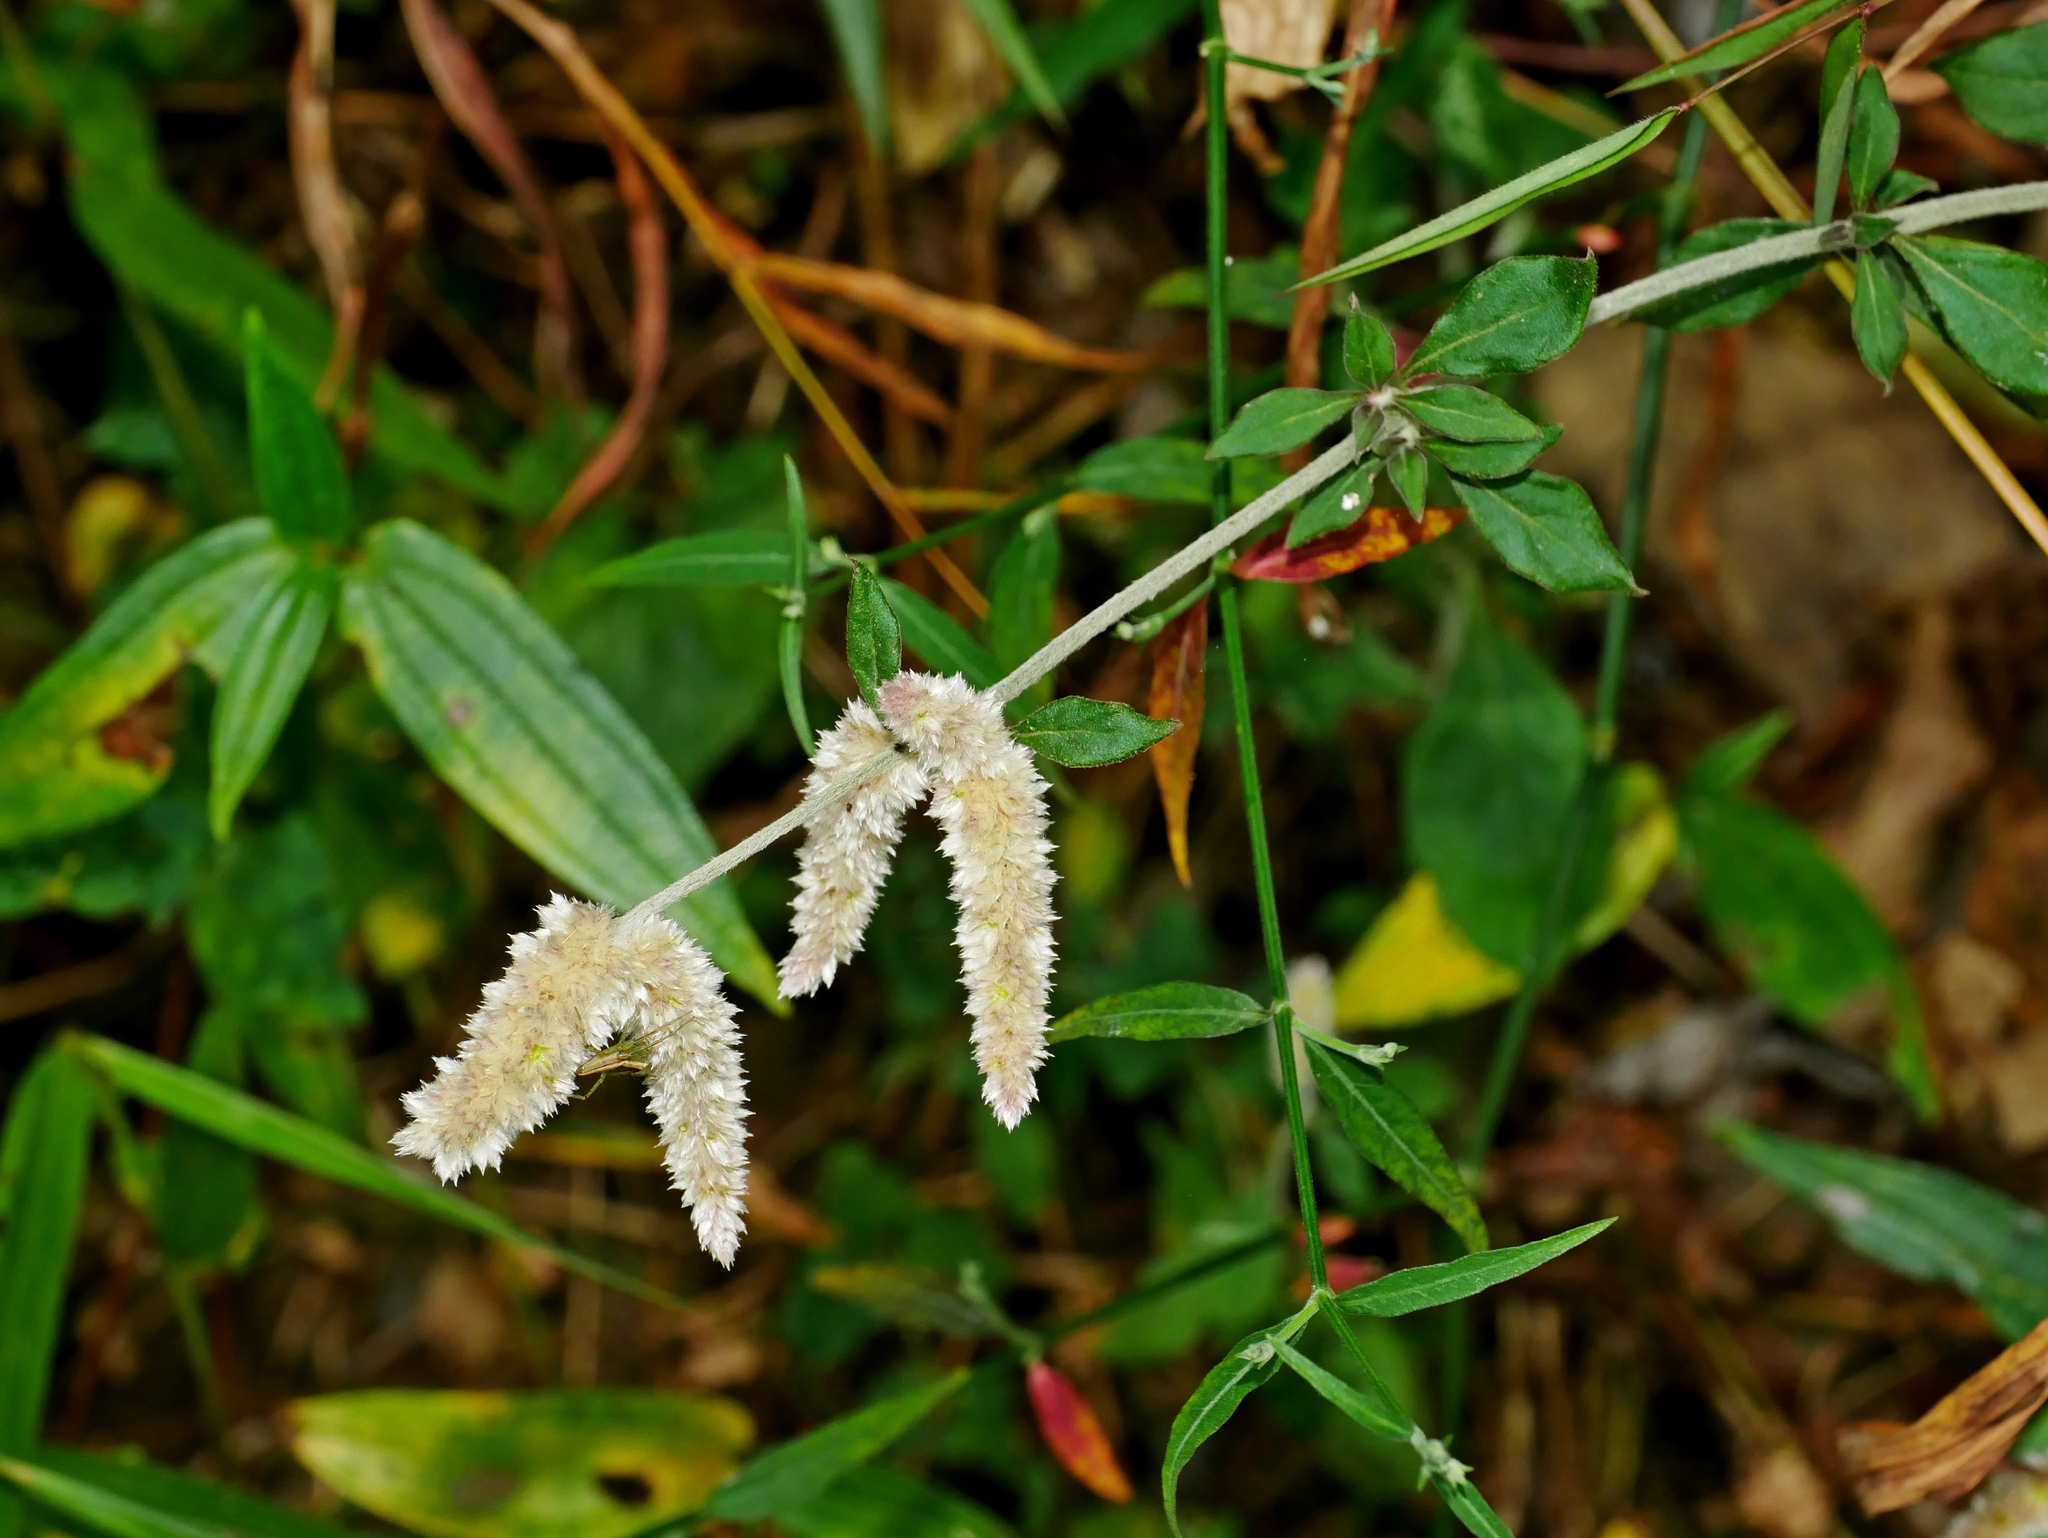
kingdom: Plantae
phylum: Tracheophyta
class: Magnoliopsida
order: Caryophyllales
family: Amaranthaceae
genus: Ouret
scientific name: Ouret sanguinolenta
